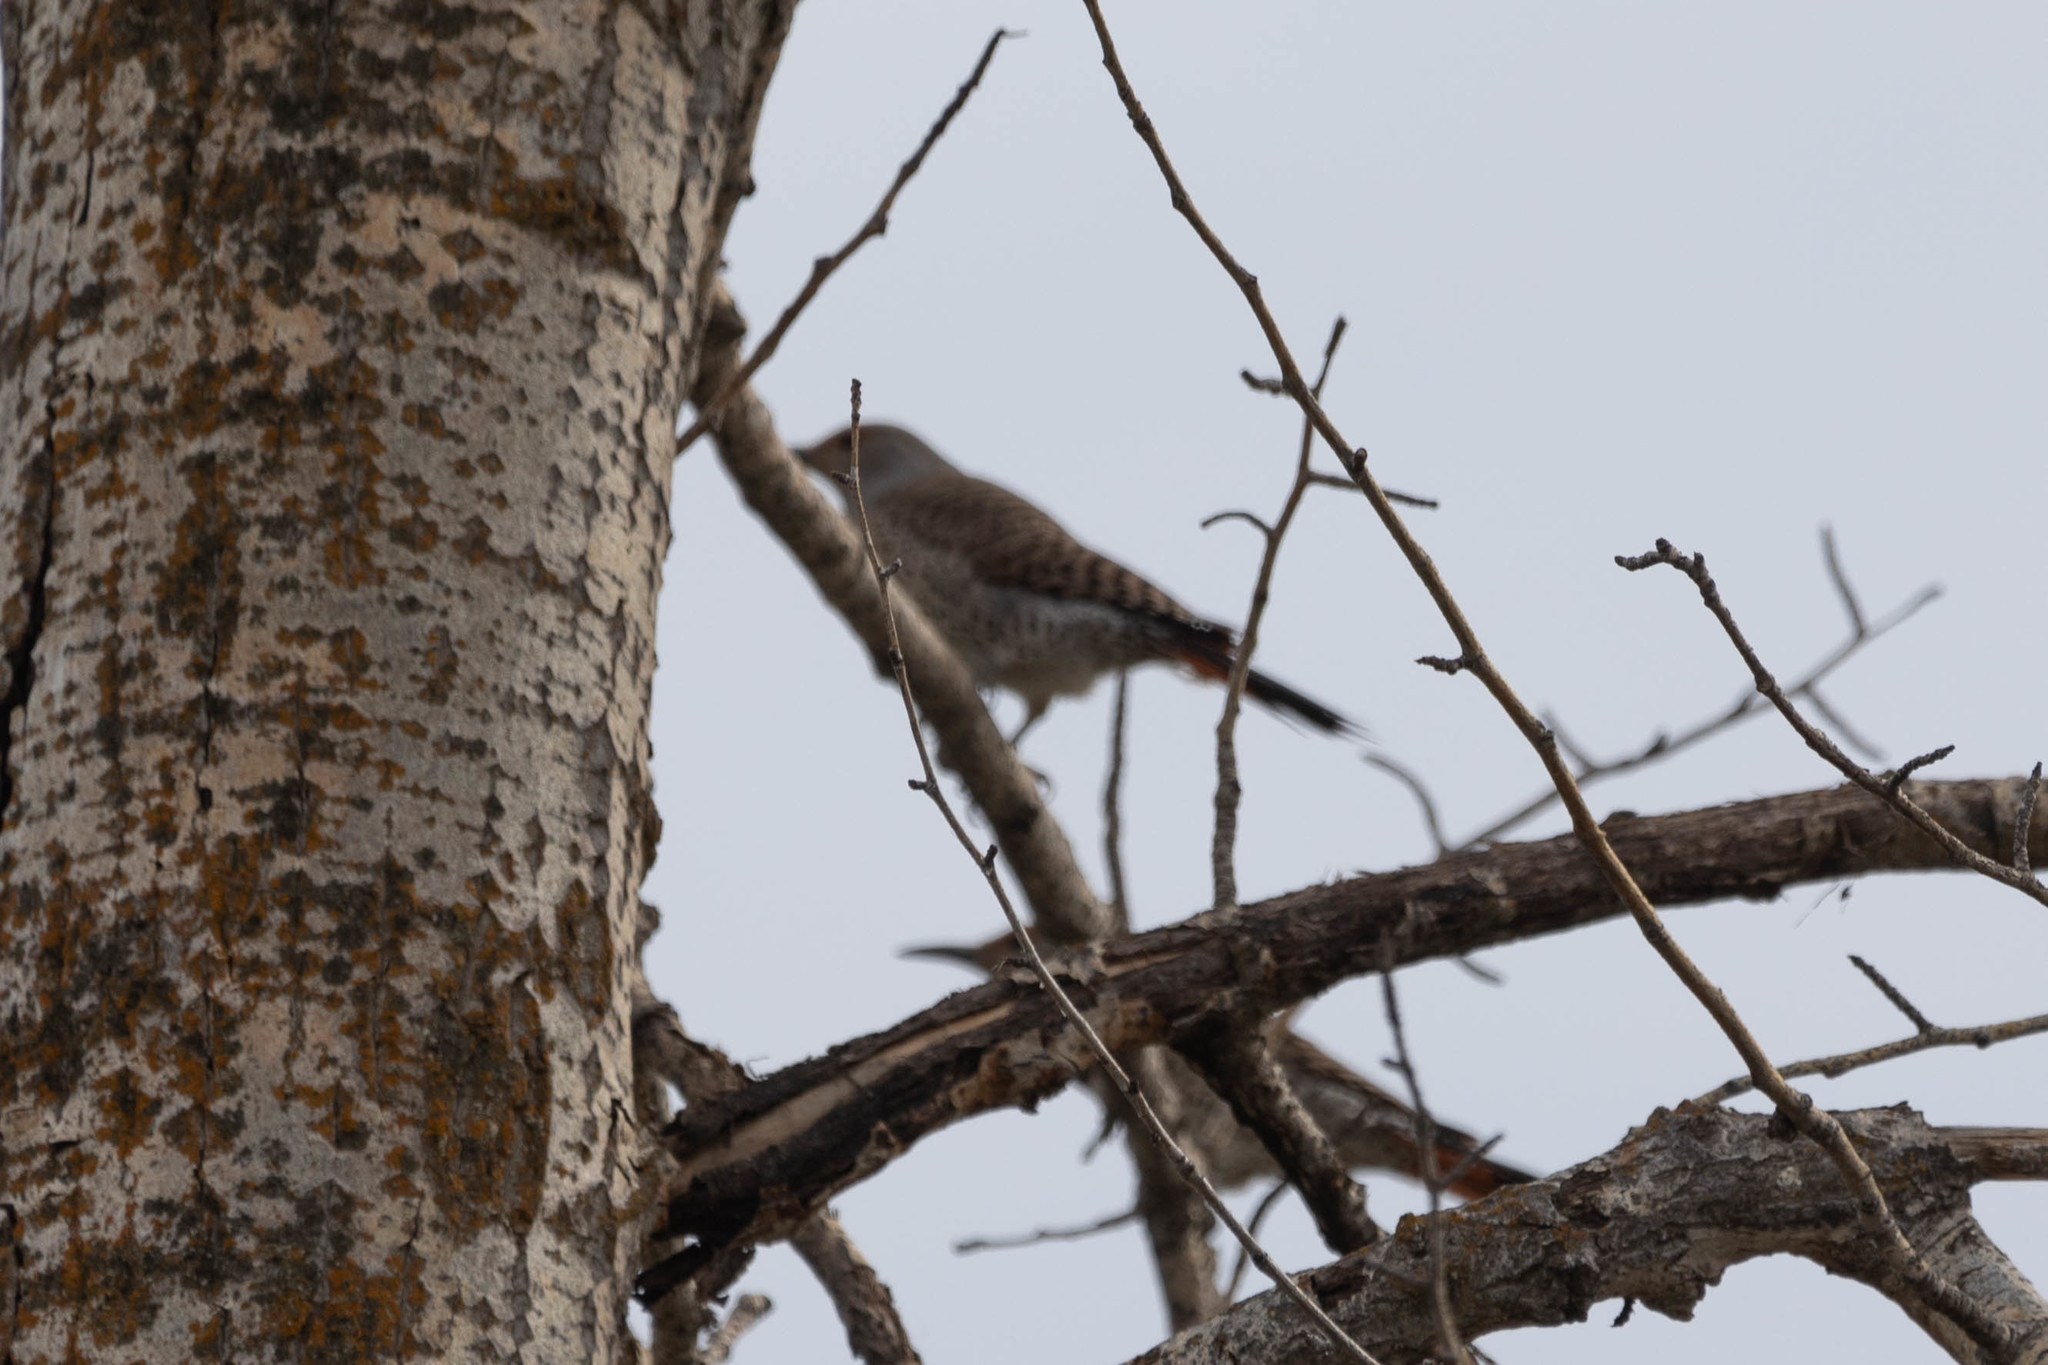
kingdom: Animalia
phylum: Chordata
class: Aves
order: Piciformes
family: Picidae
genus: Colaptes
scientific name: Colaptes auratus
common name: Northern flicker
